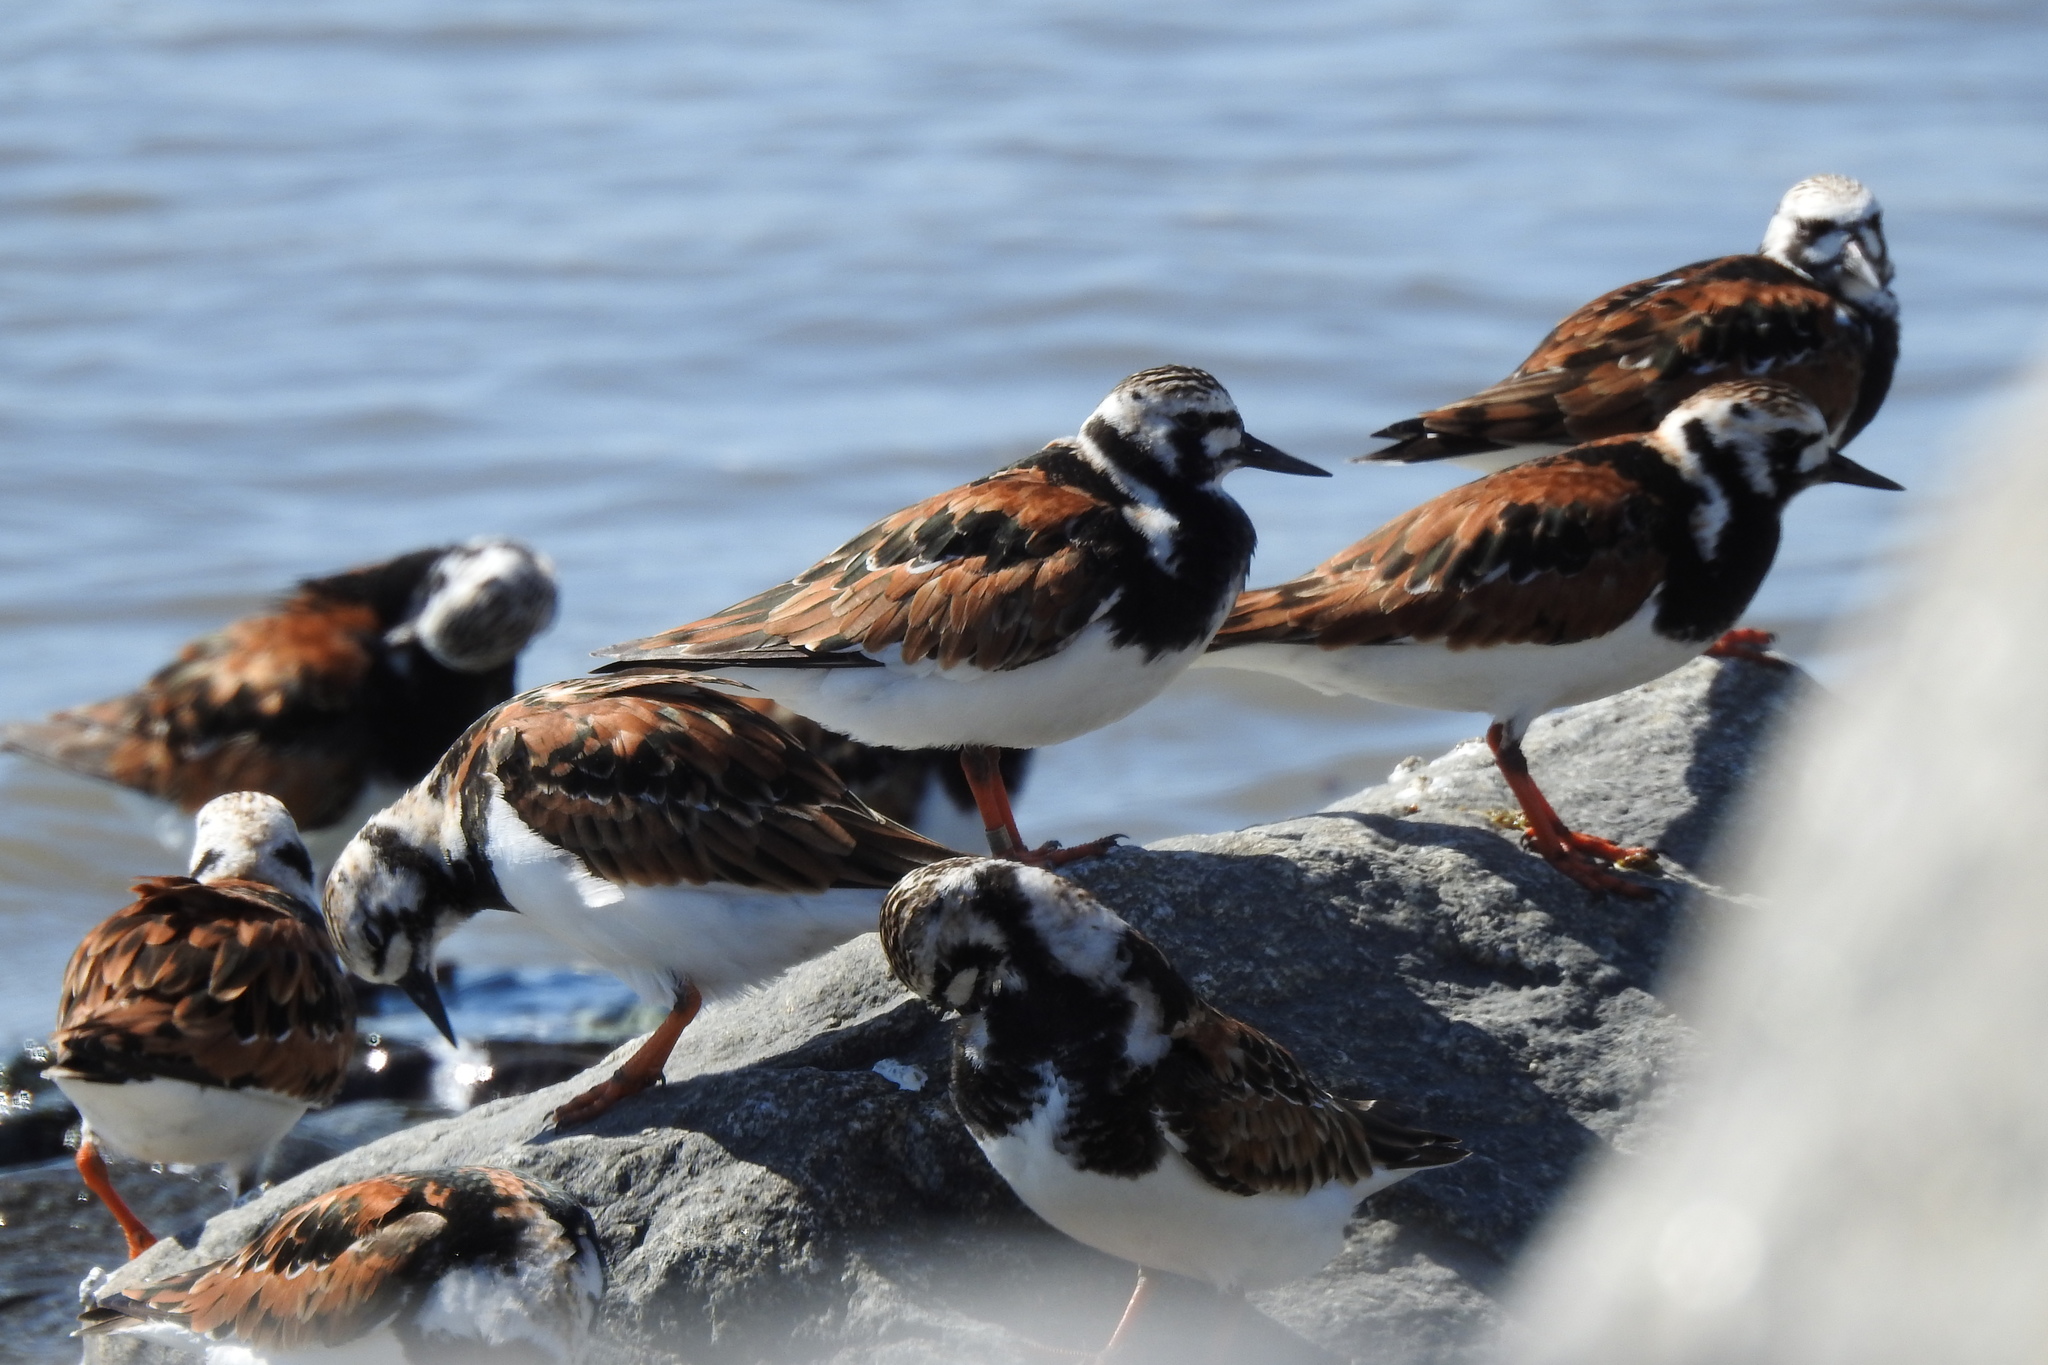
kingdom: Animalia
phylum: Chordata
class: Aves
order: Charadriiformes
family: Scolopacidae
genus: Arenaria
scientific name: Arenaria interpres
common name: Ruddy turnstone
